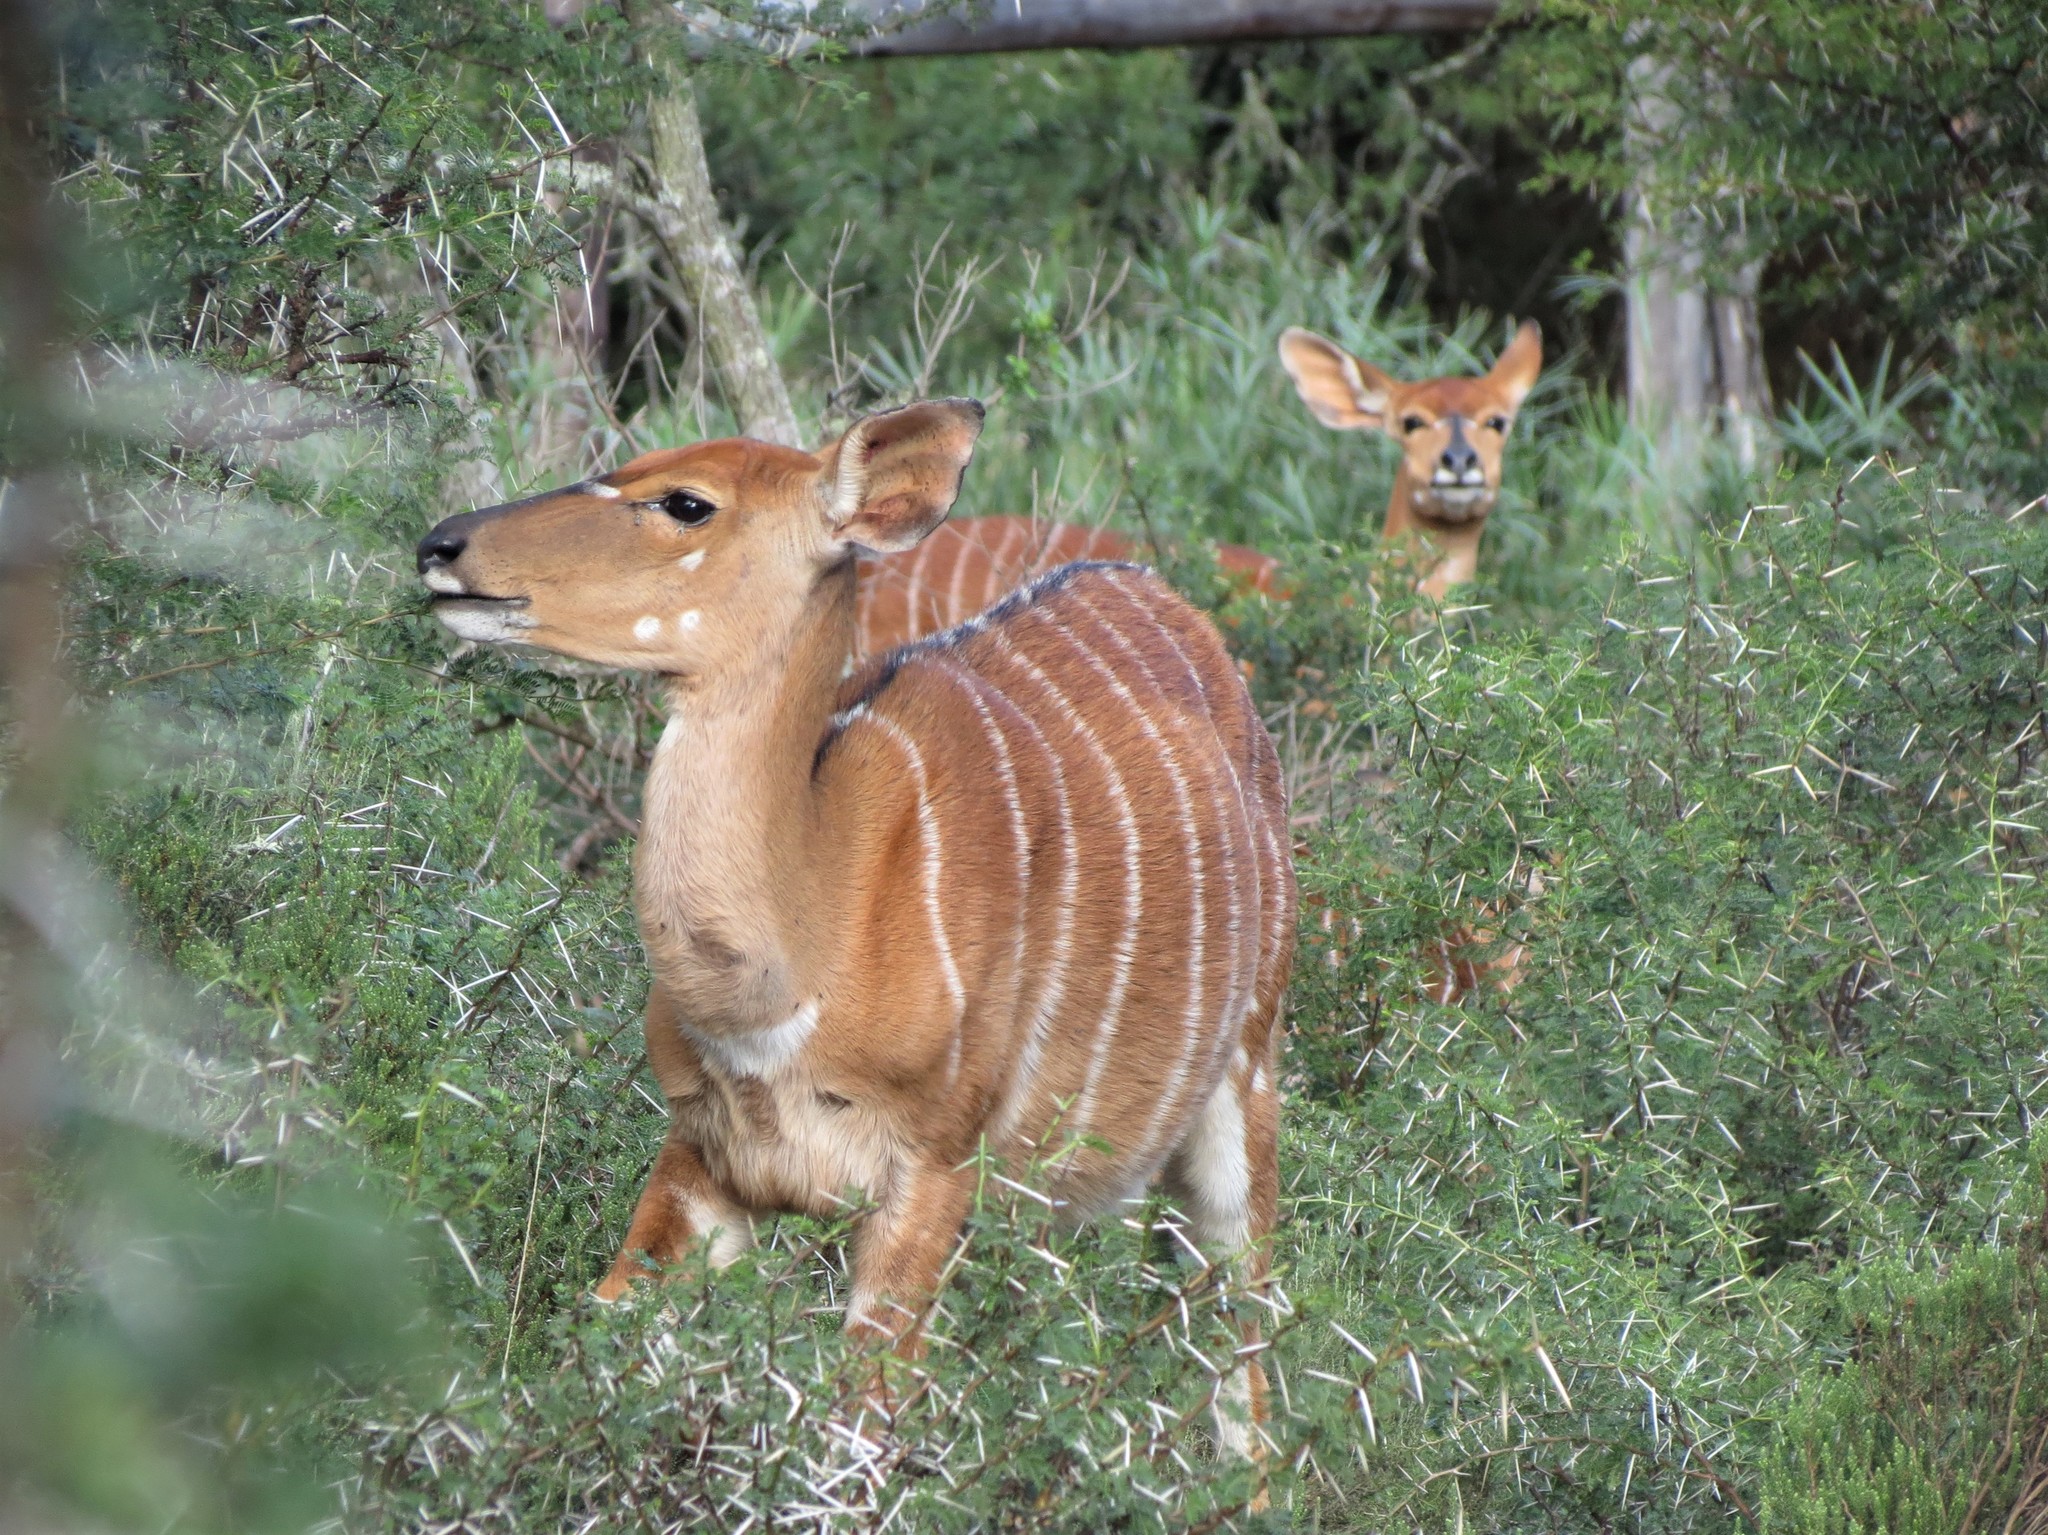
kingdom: Animalia
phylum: Chordata
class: Mammalia
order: Artiodactyla
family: Bovidae
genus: Tragelaphus
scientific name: Tragelaphus angasii
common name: Nyala
